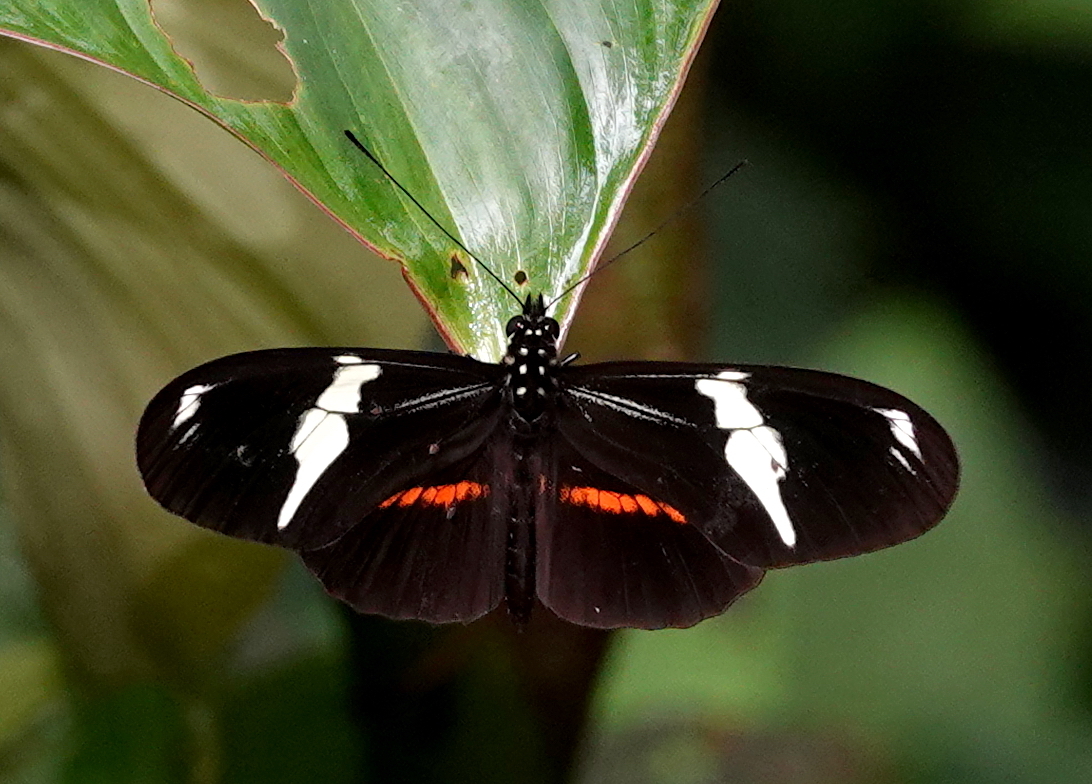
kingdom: Animalia
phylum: Arthropoda
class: Insecta
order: Lepidoptera
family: Nymphalidae
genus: Heliconius
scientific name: Heliconius clysonymus
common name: Clysonymus longwing
